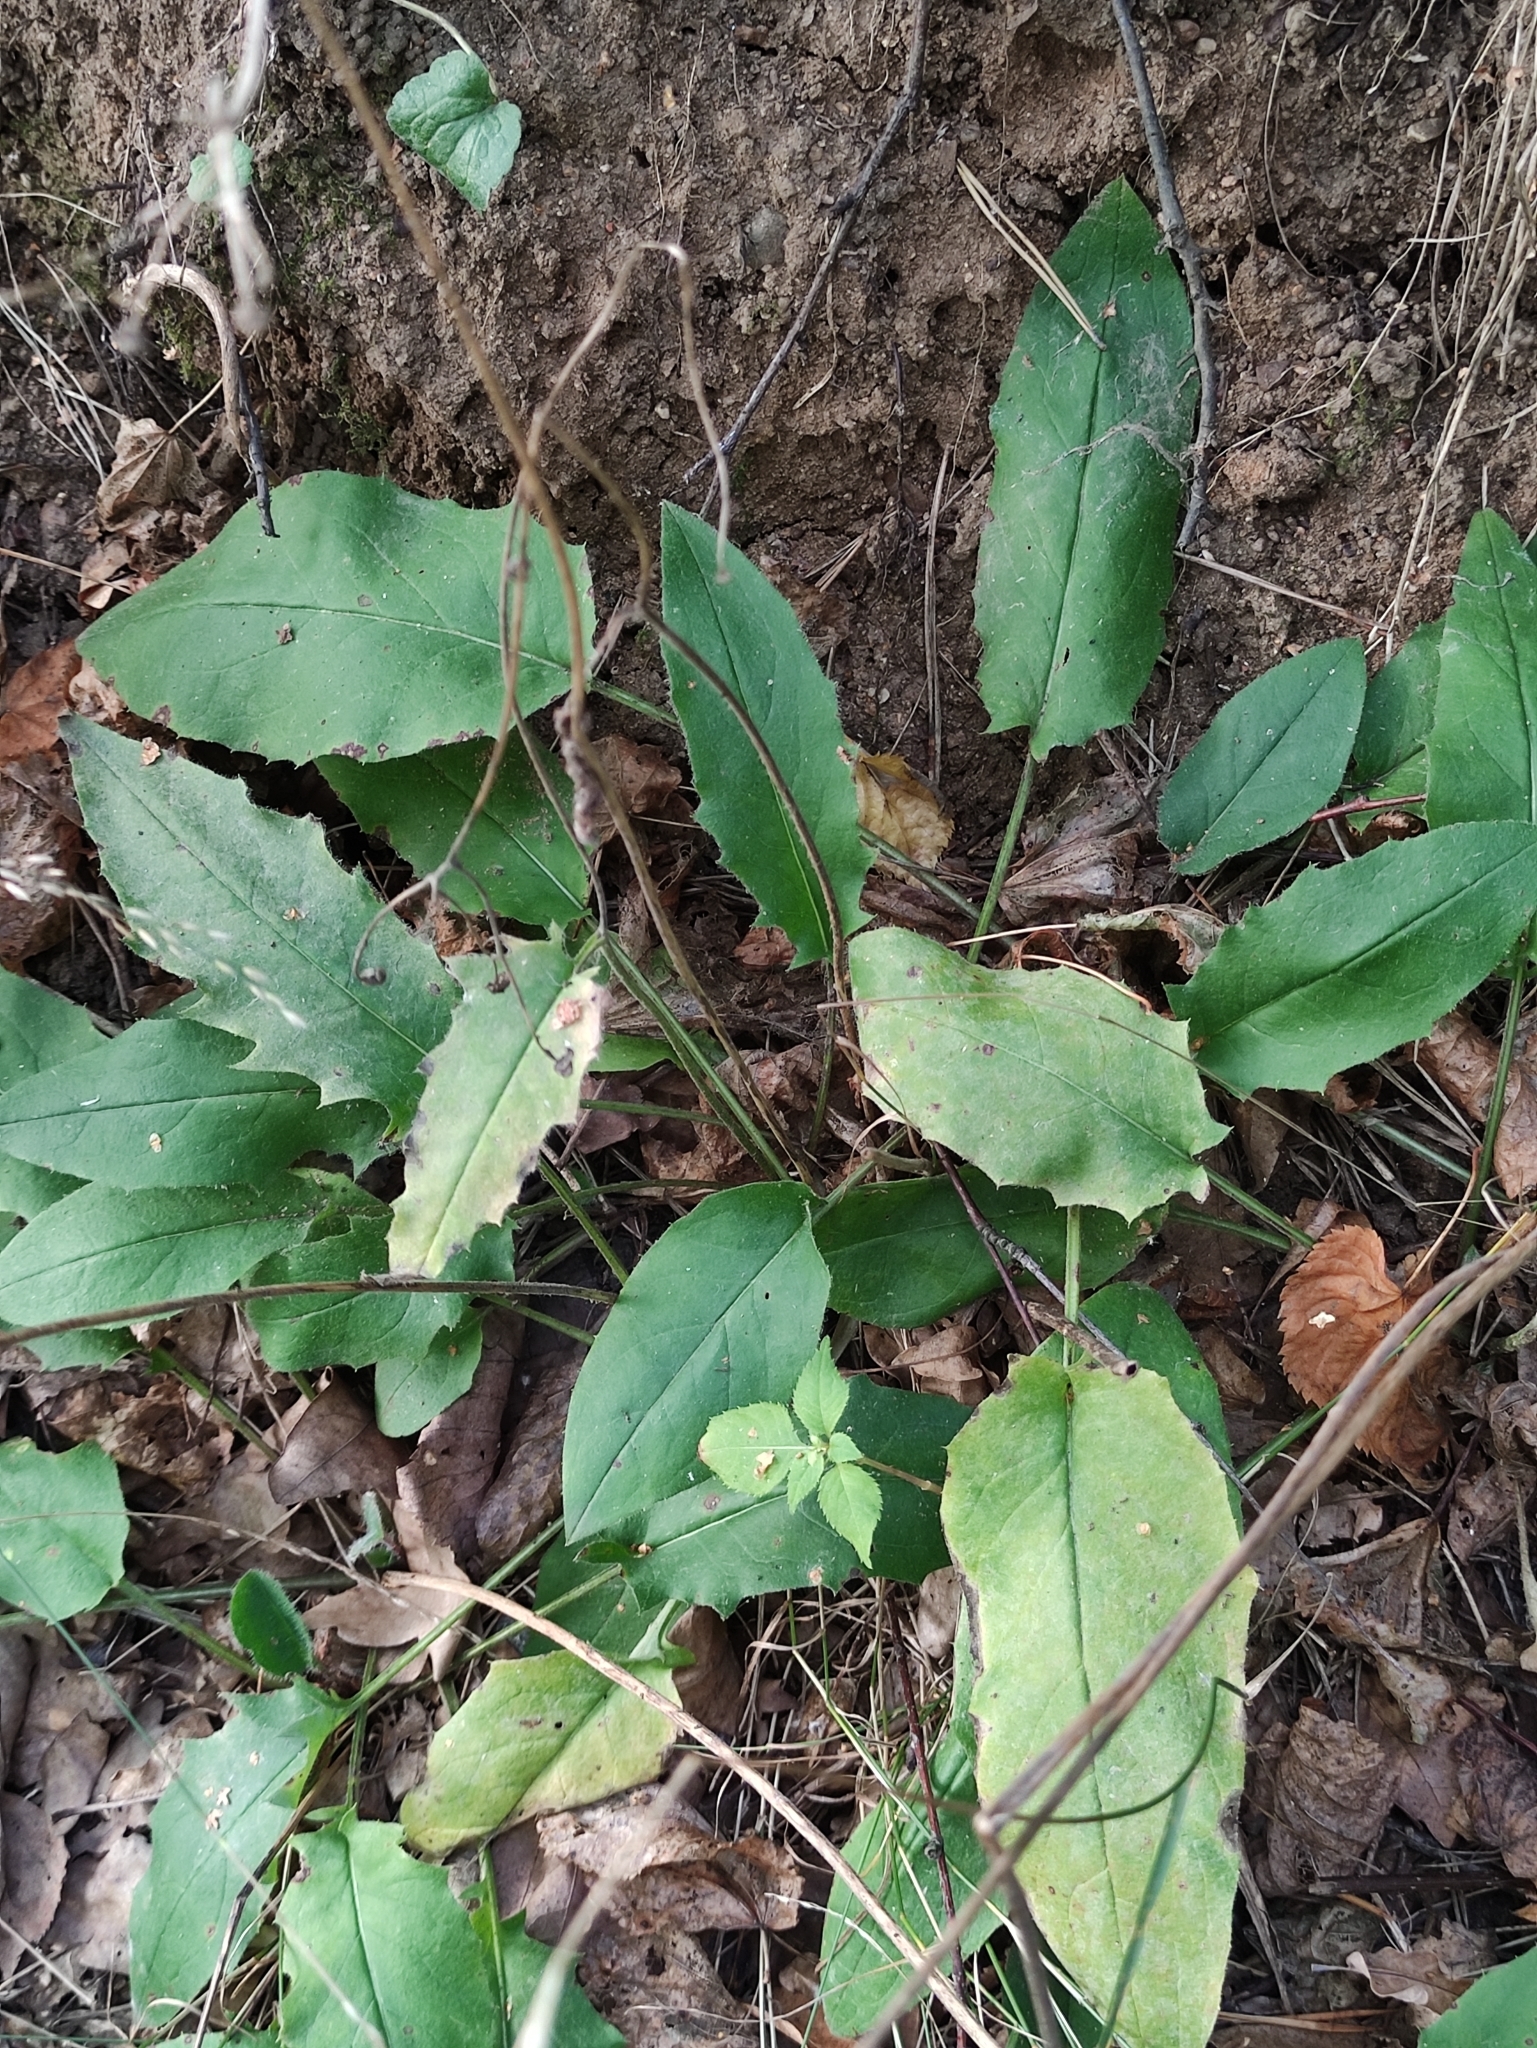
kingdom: Plantae
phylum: Tracheophyta
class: Magnoliopsida
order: Asterales
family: Asteraceae
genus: Hieracium
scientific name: Hieracium murorum
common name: Wall hawkweed
